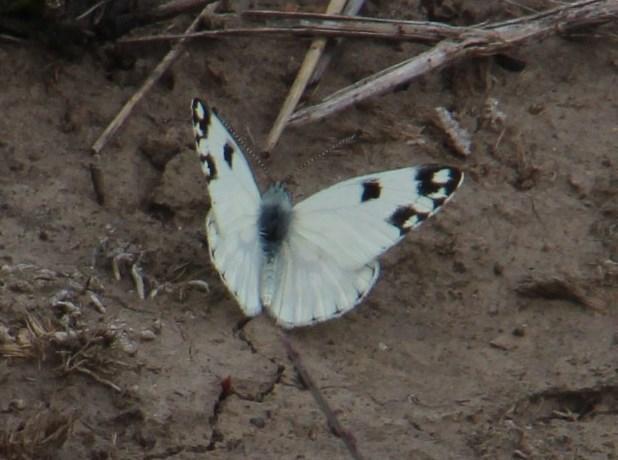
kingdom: Animalia
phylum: Arthropoda
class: Insecta
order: Lepidoptera
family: Pieridae
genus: Pontia
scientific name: Pontia helice
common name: Meadow white
